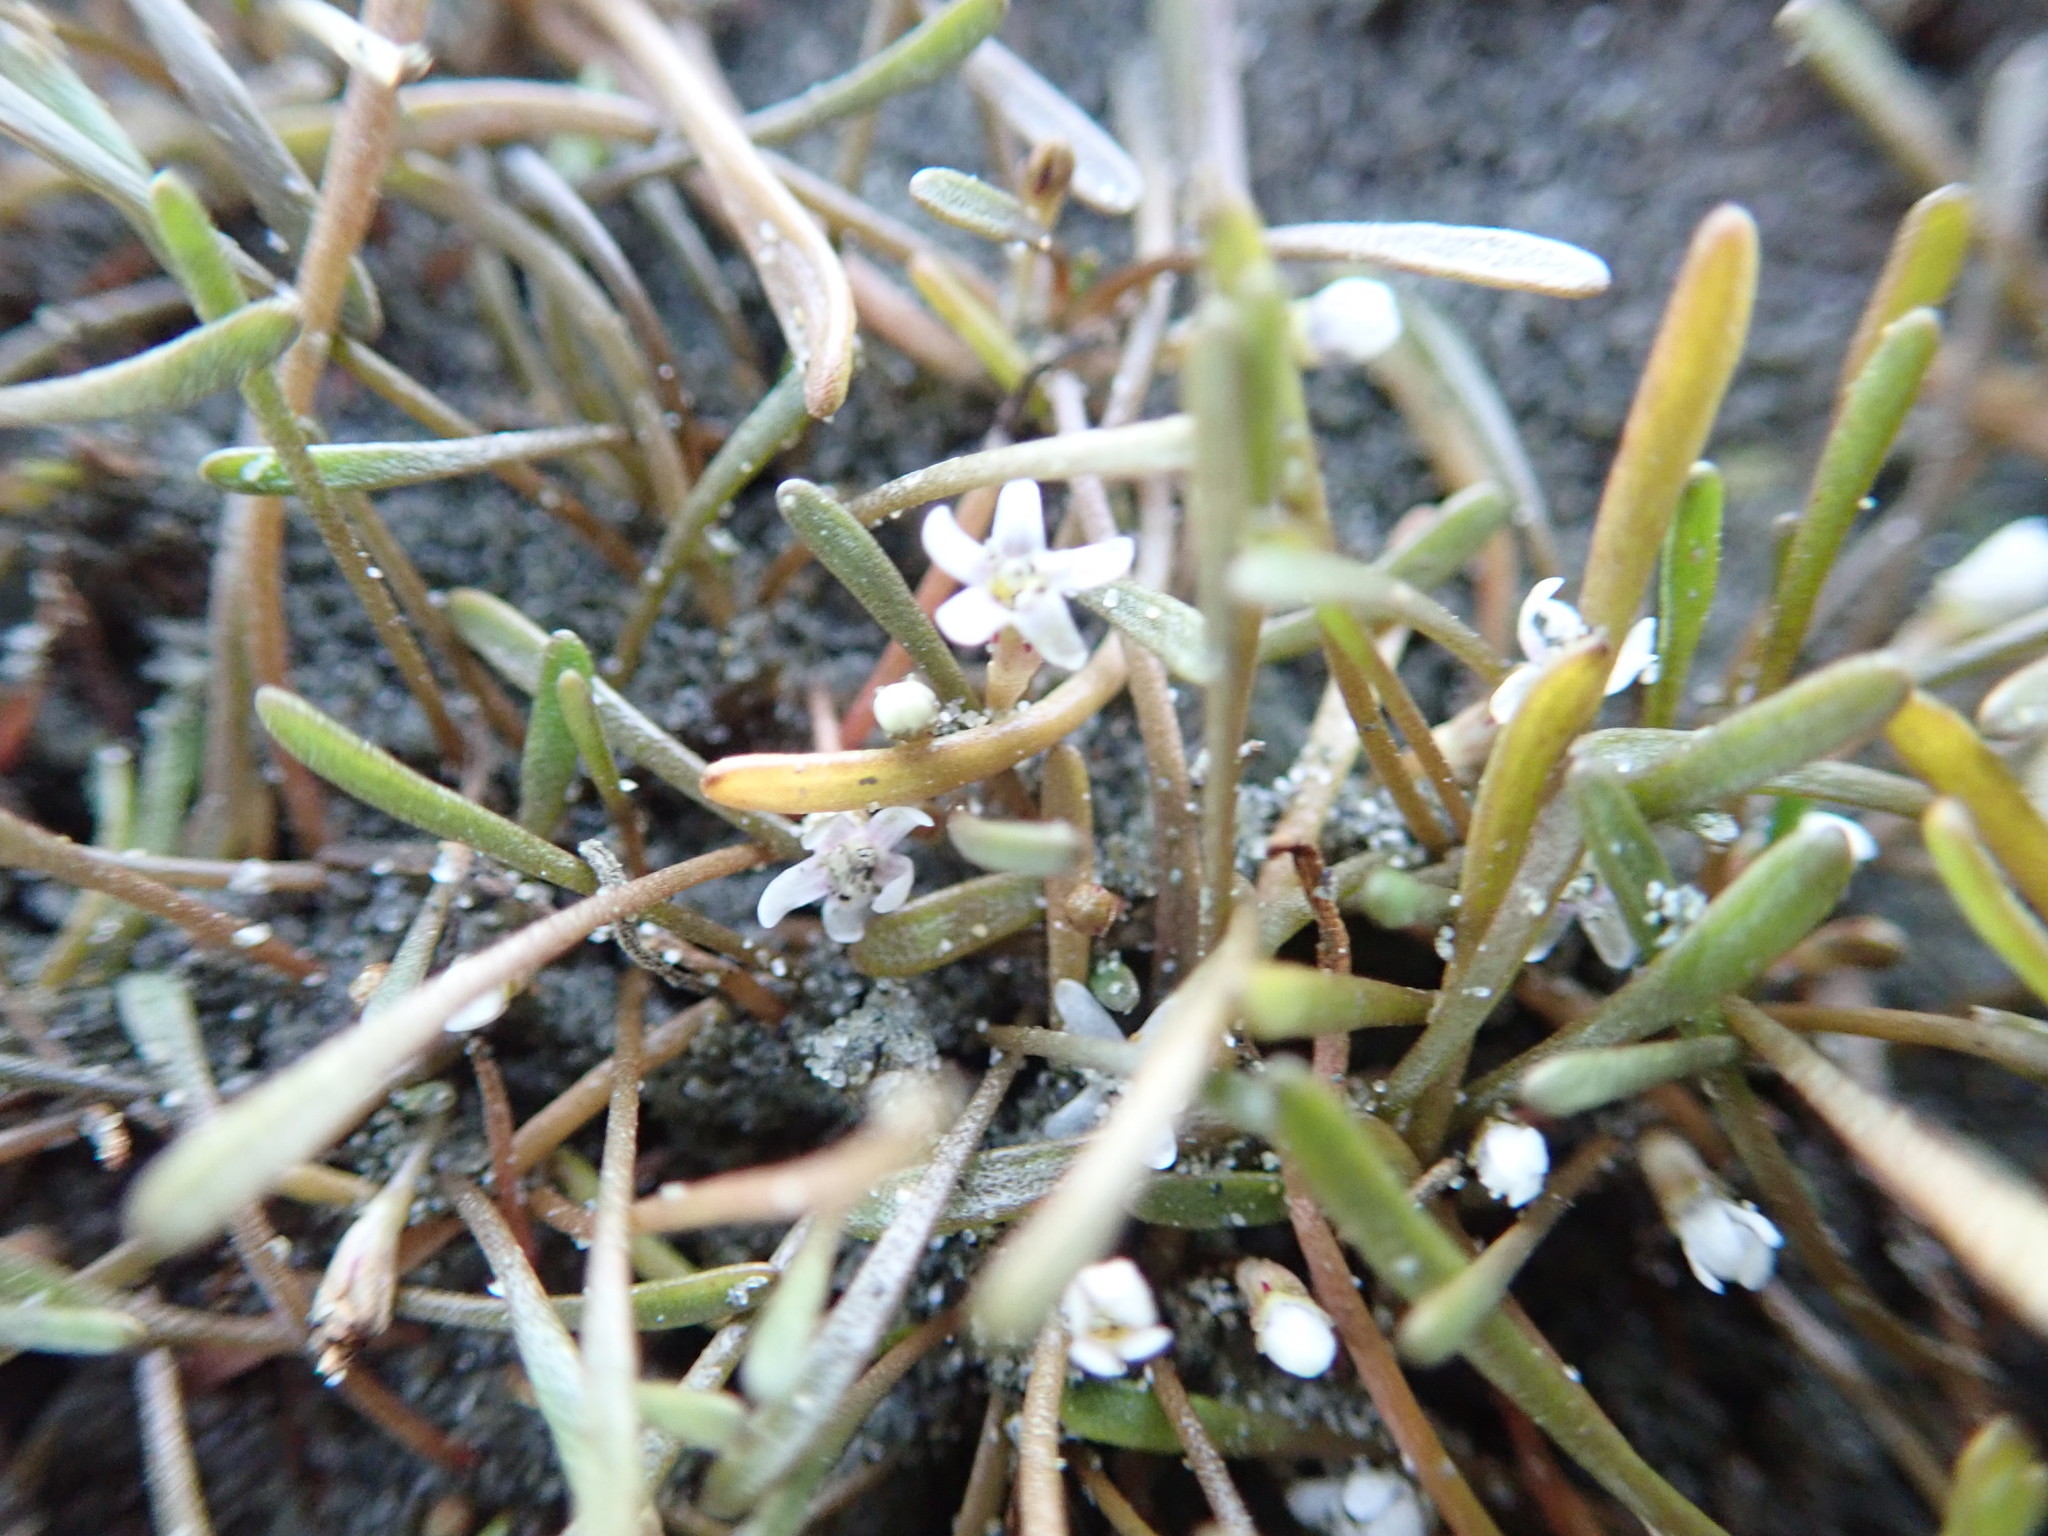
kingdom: Plantae
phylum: Tracheophyta
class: Magnoliopsida
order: Lamiales
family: Scrophulariaceae
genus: Limosella
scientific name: Limosella australis
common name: Welsh mudwort
